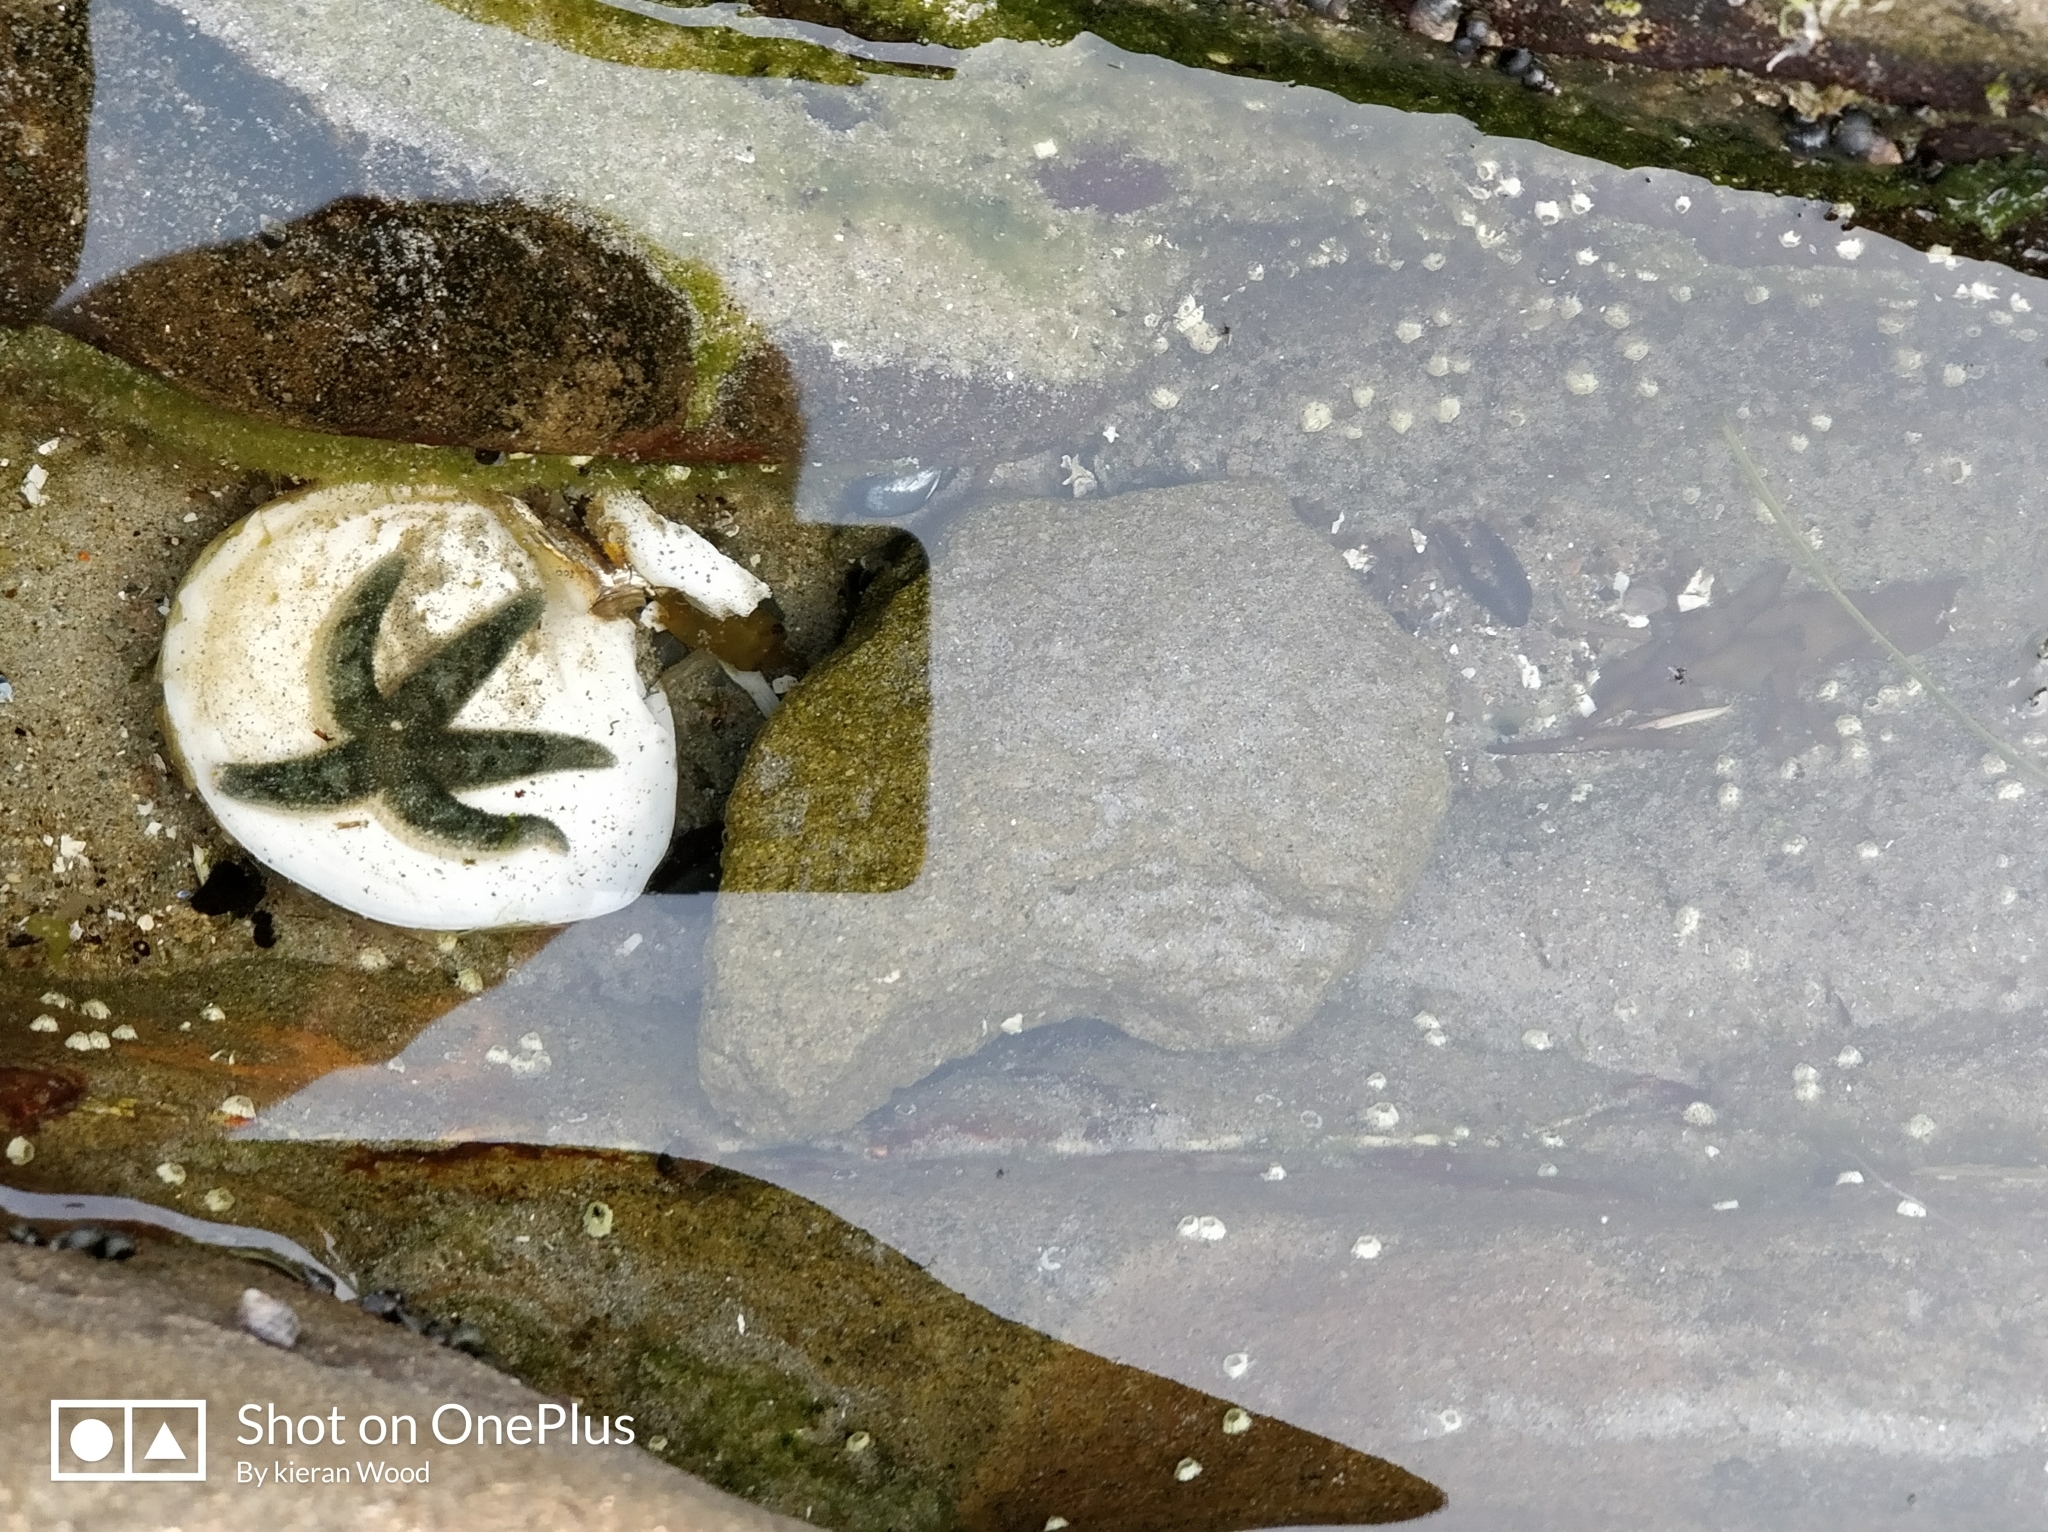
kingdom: Animalia
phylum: Echinodermata
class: Asteroidea
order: Forcipulatida
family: Asteriidae
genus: Evasterias
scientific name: Evasterias troschelii
